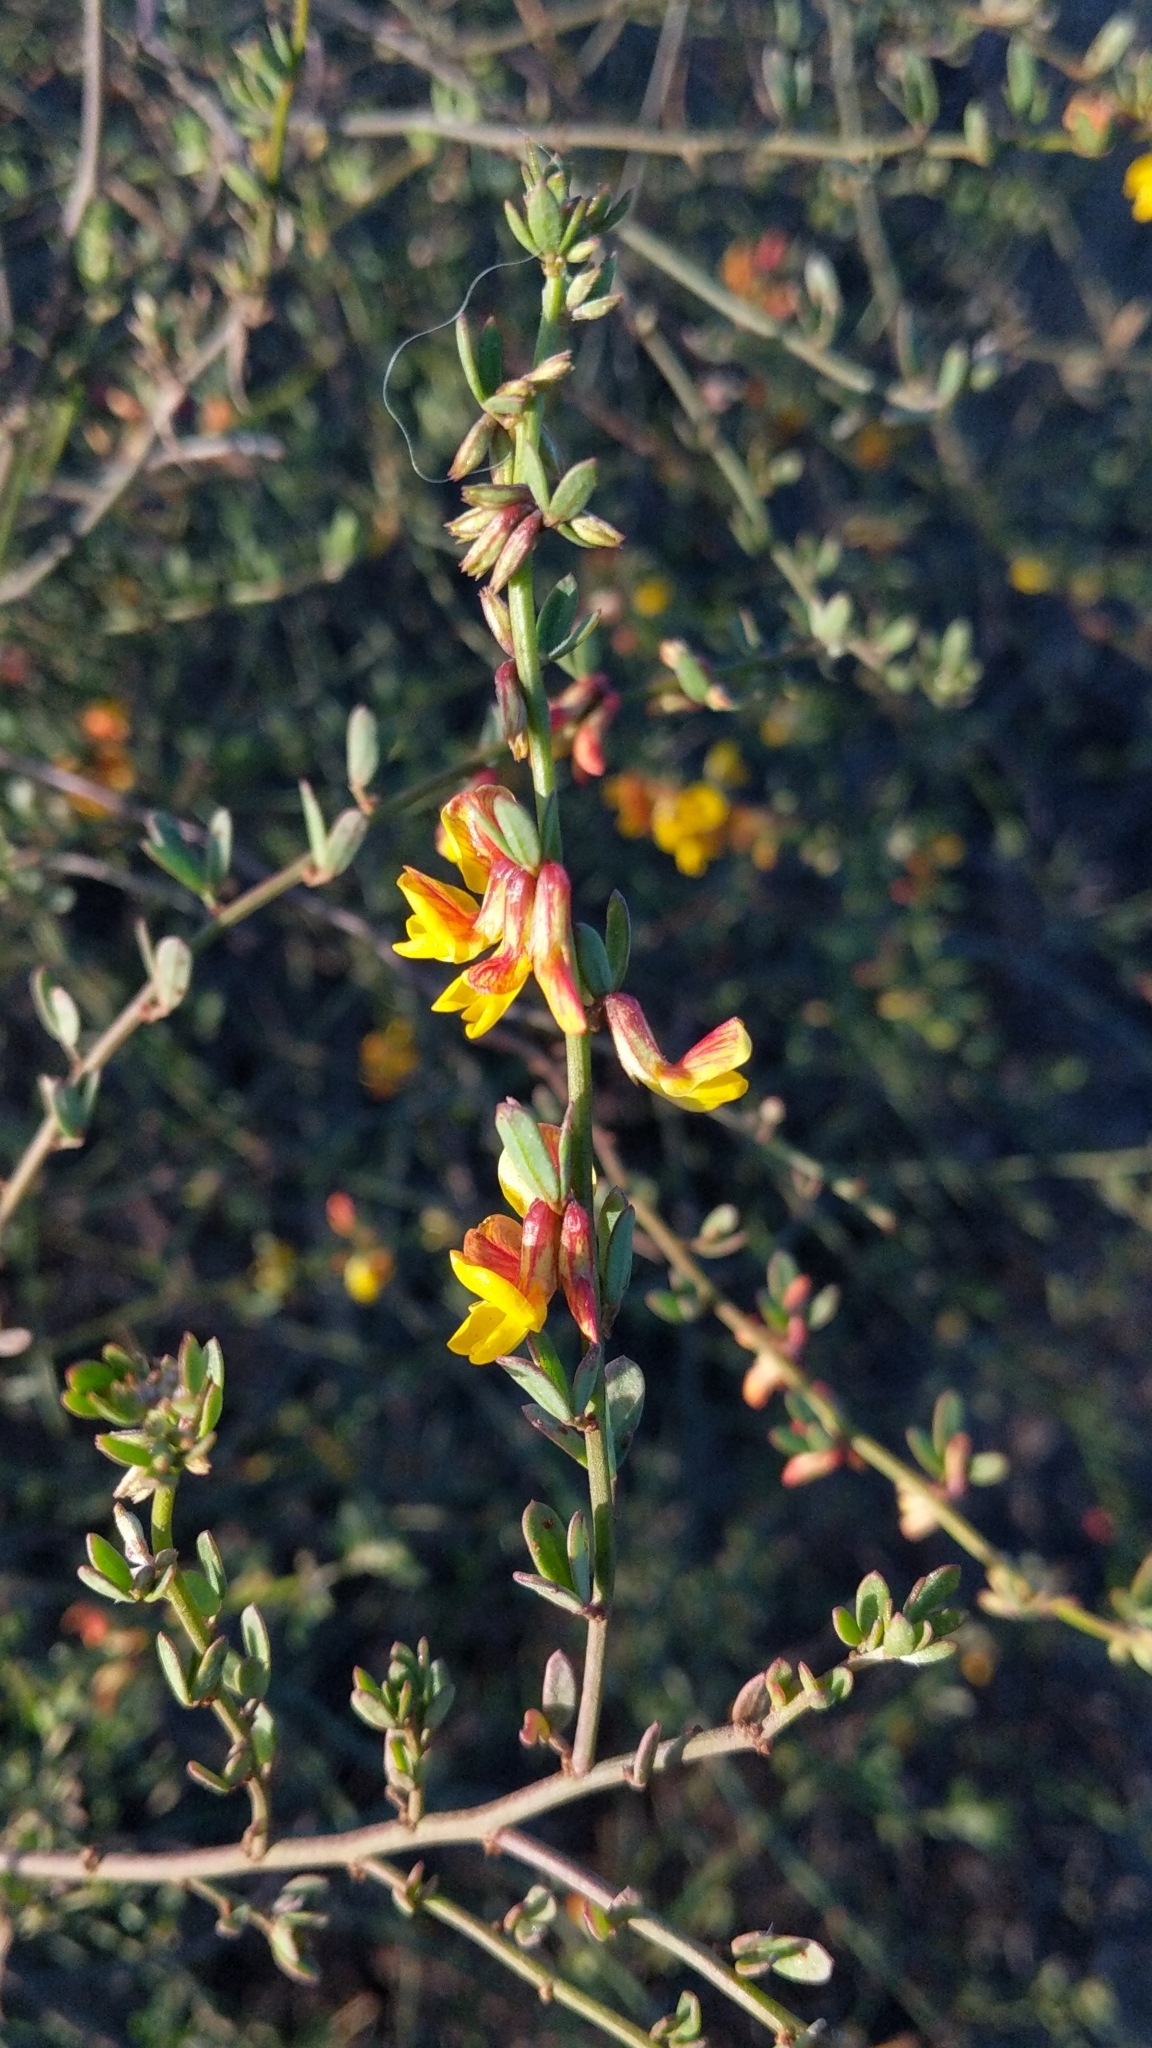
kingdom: Plantae
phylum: Tracheophyta
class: Magnoliopsida
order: Fabales
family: Fabaceae
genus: Acmispon
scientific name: Acmispon glaber
